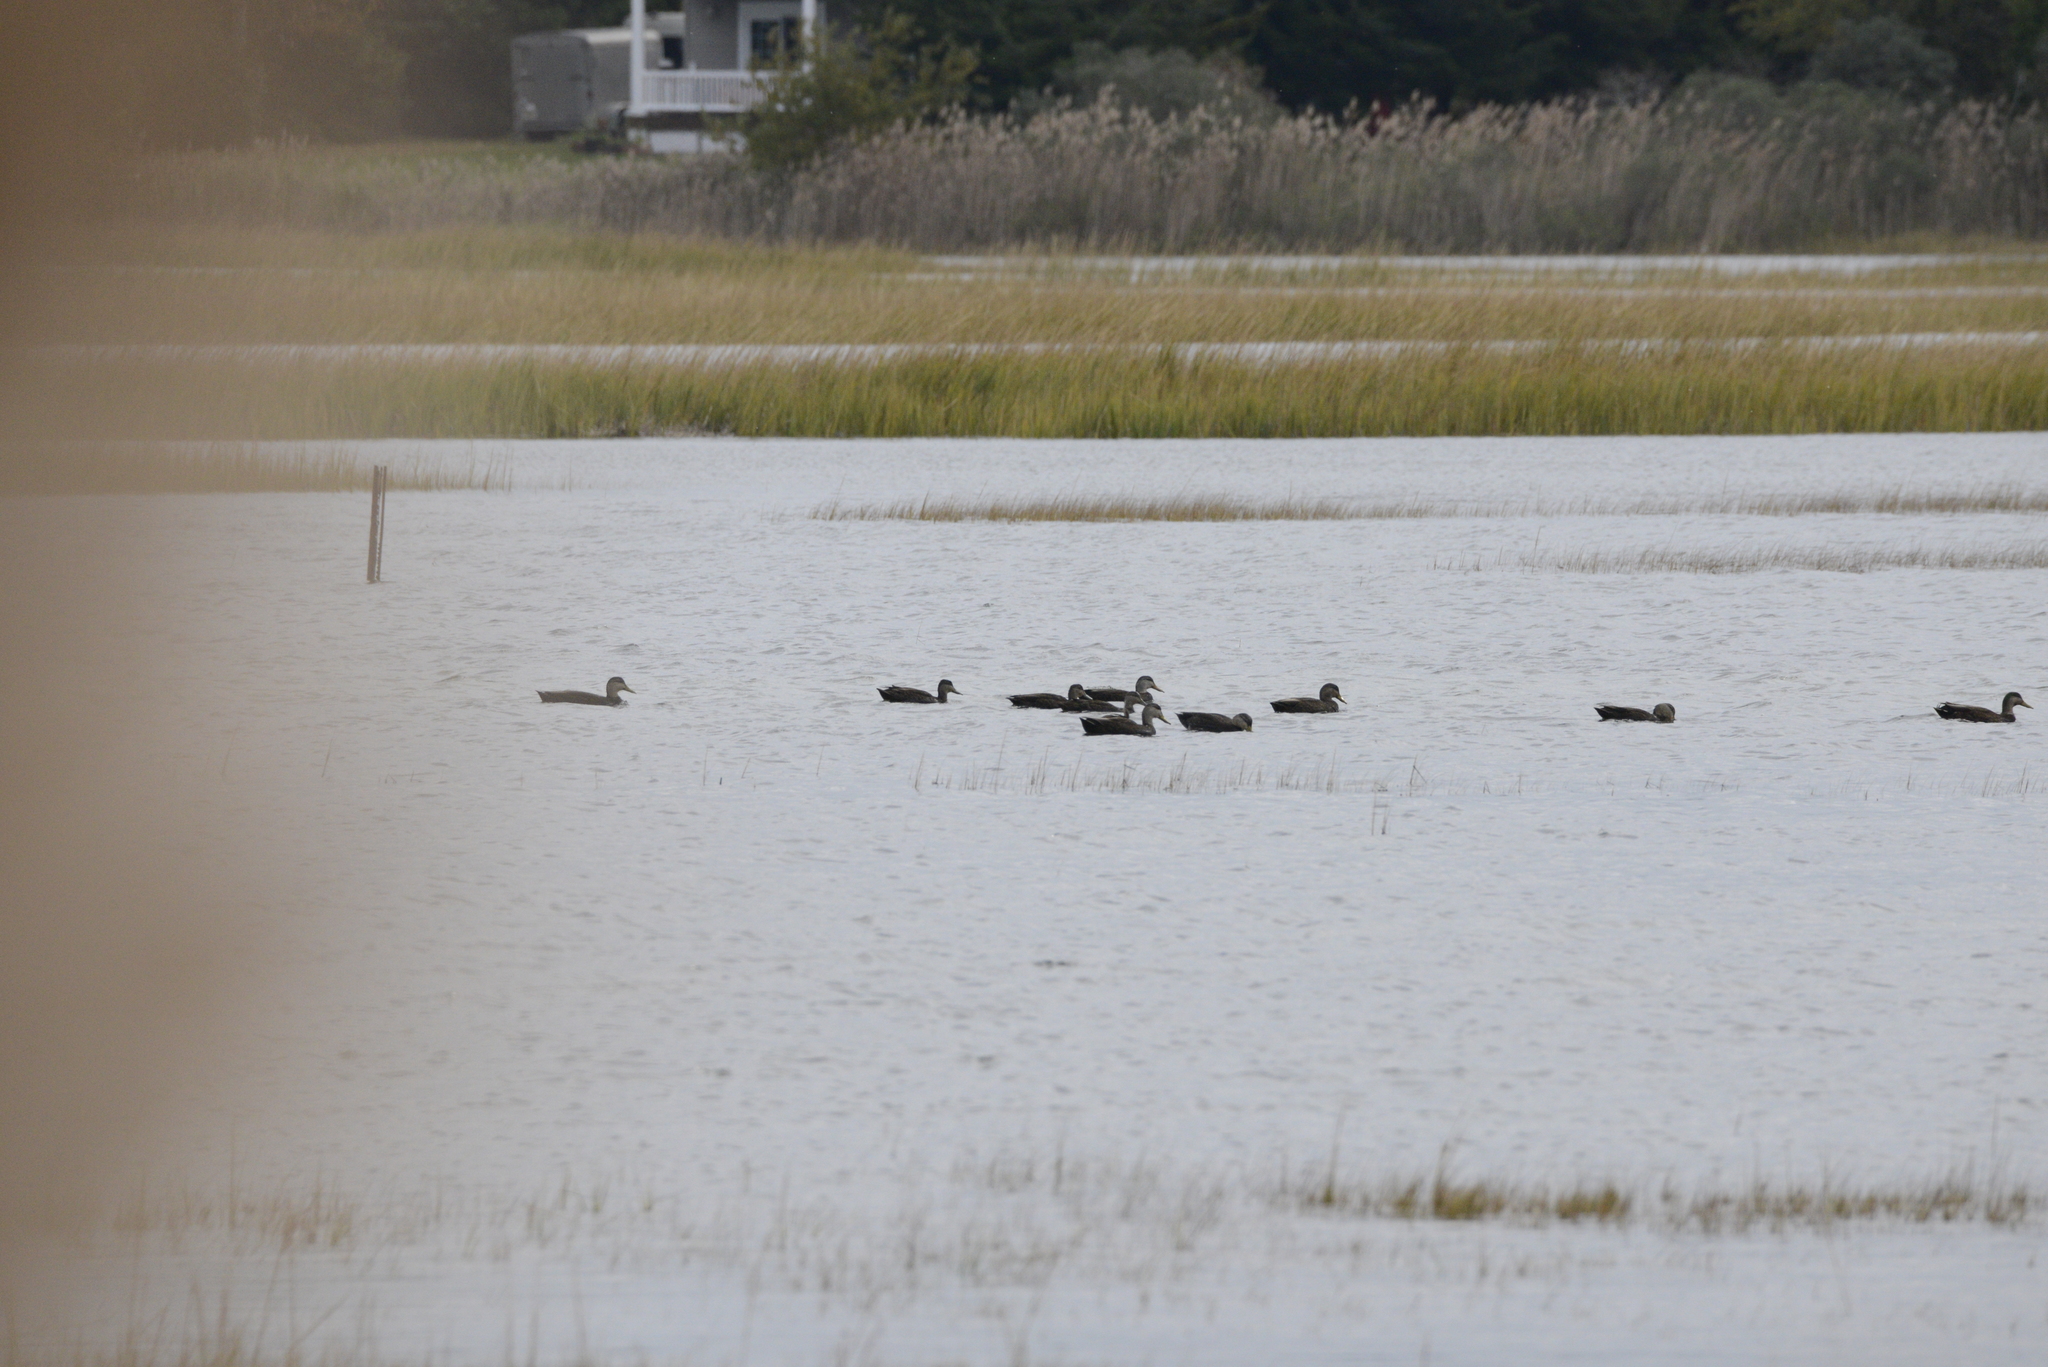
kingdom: Animalia
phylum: Chordata
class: Aves
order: Anseriformes
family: Anatidae
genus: Anas
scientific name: Anas rubripes
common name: American black duck
